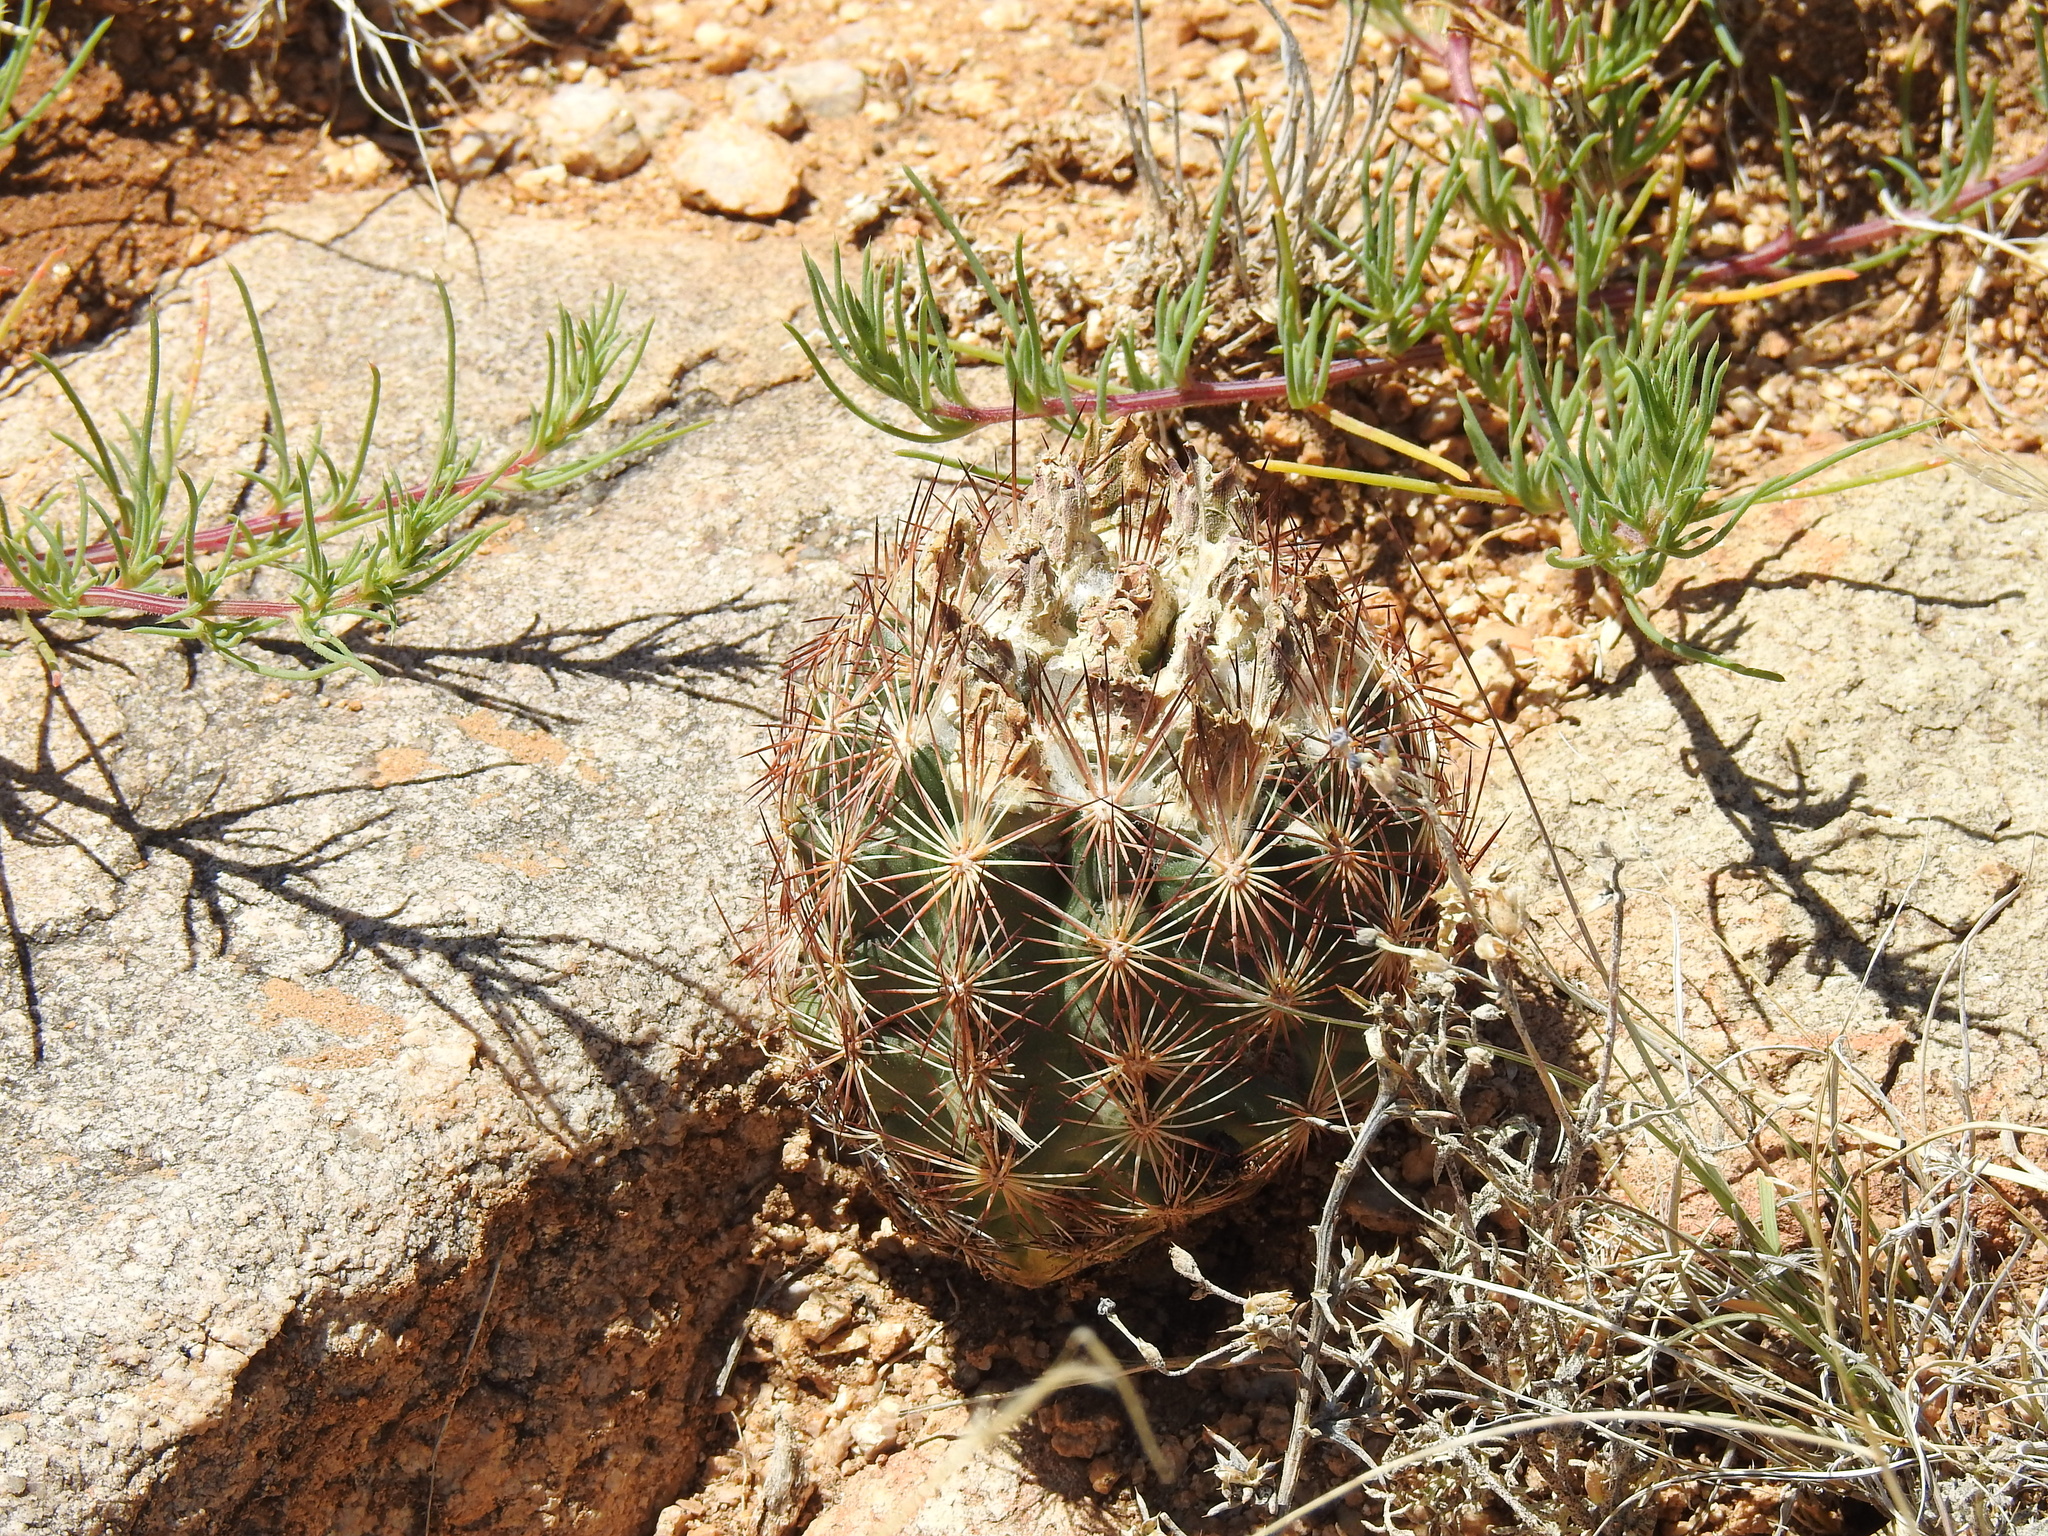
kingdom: Plantae
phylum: Tracheophyta
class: Magnoliopsida
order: Caryophyllales
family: Cactaceae
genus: Sclerocactus
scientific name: Sclerocactus intertextus
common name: White fish-hook cactus
